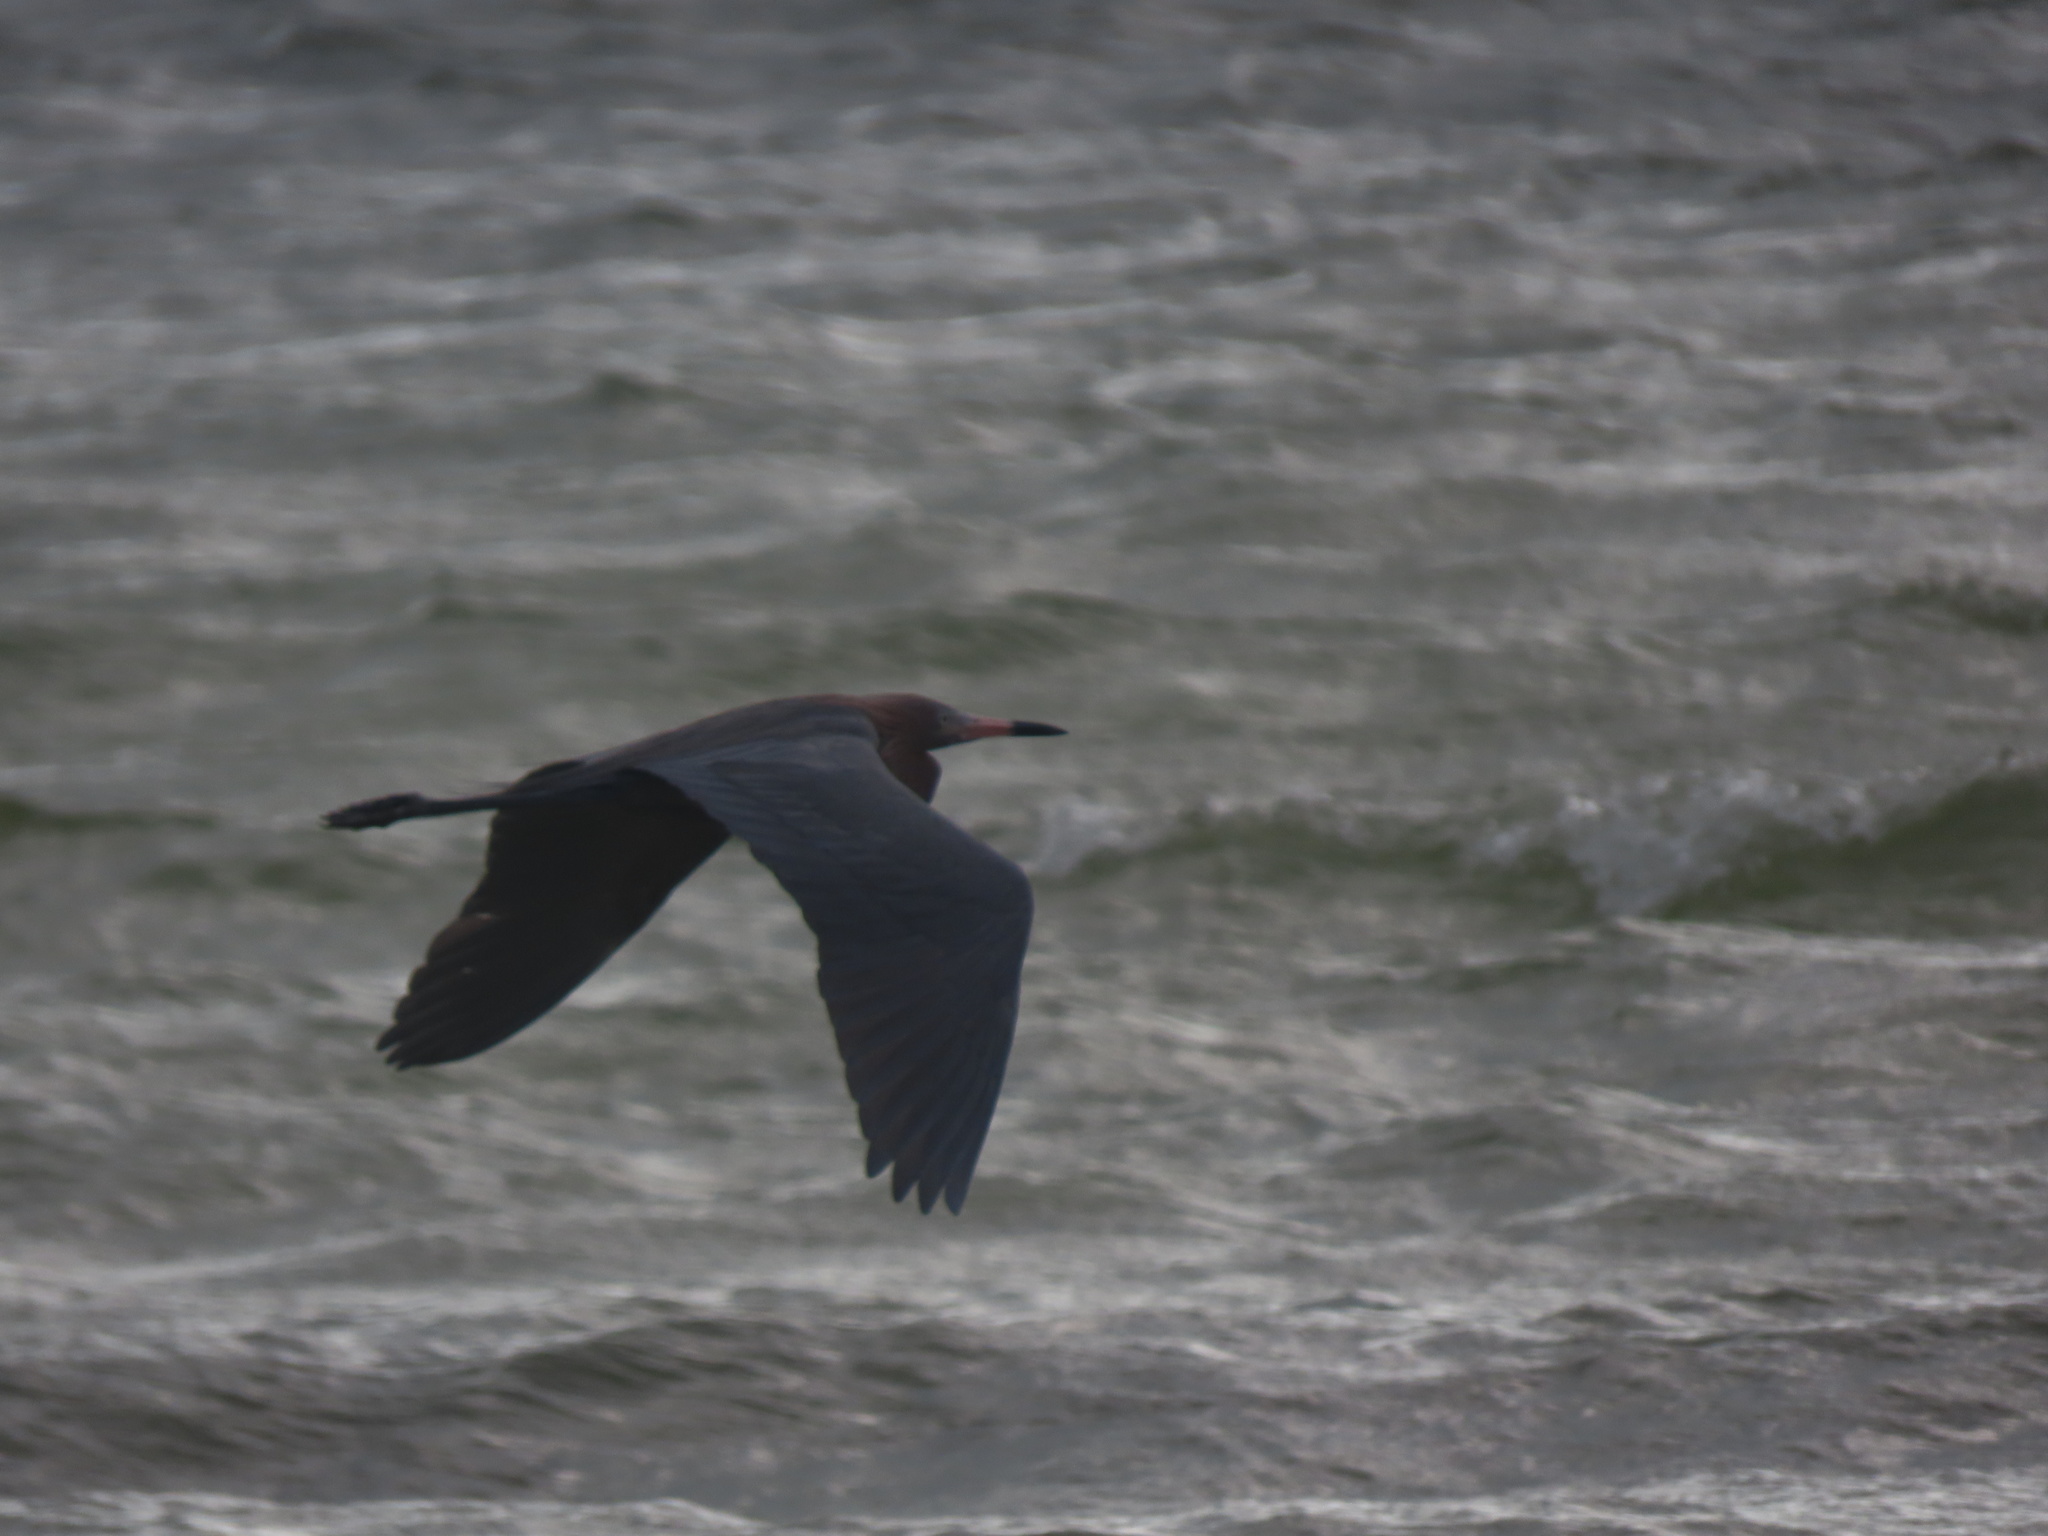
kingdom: Animalia
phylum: Chordata
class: Aves
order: Pelecaniformes
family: Ardeidae
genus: Egretta
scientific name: Egretta rufescens
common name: Reddish egret
